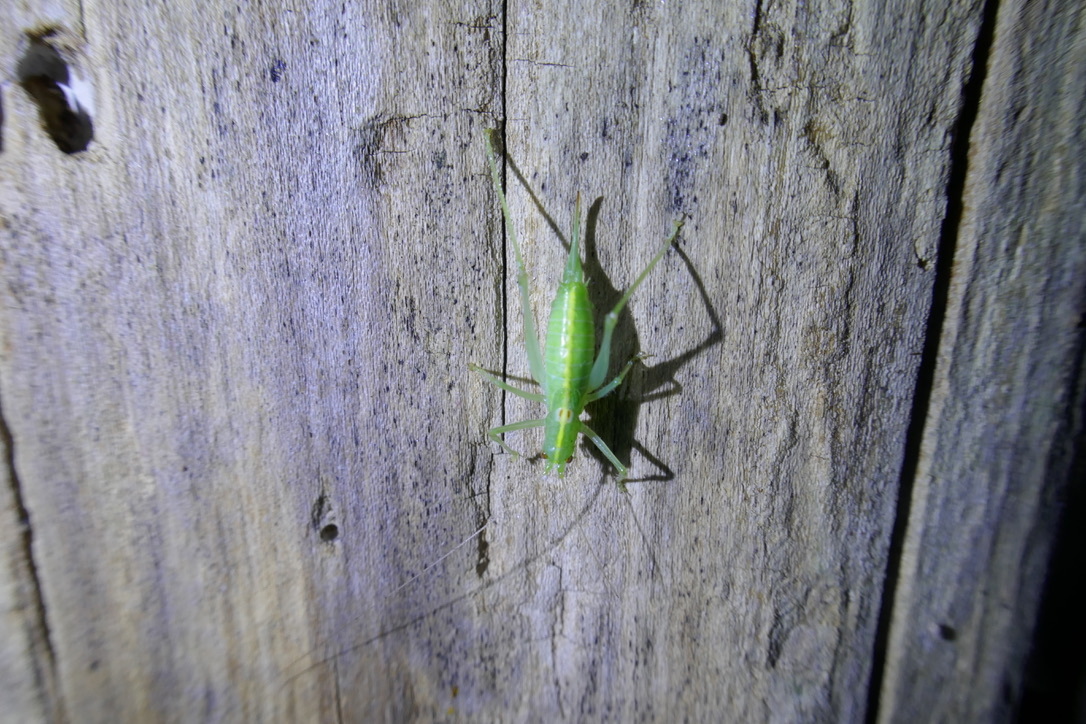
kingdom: Animalia
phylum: Arthropoda
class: Insecta
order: Orthoptera
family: Tettigoniidae
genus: Meconema
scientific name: Meconema meridionale
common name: Southern oak bush-cricket
